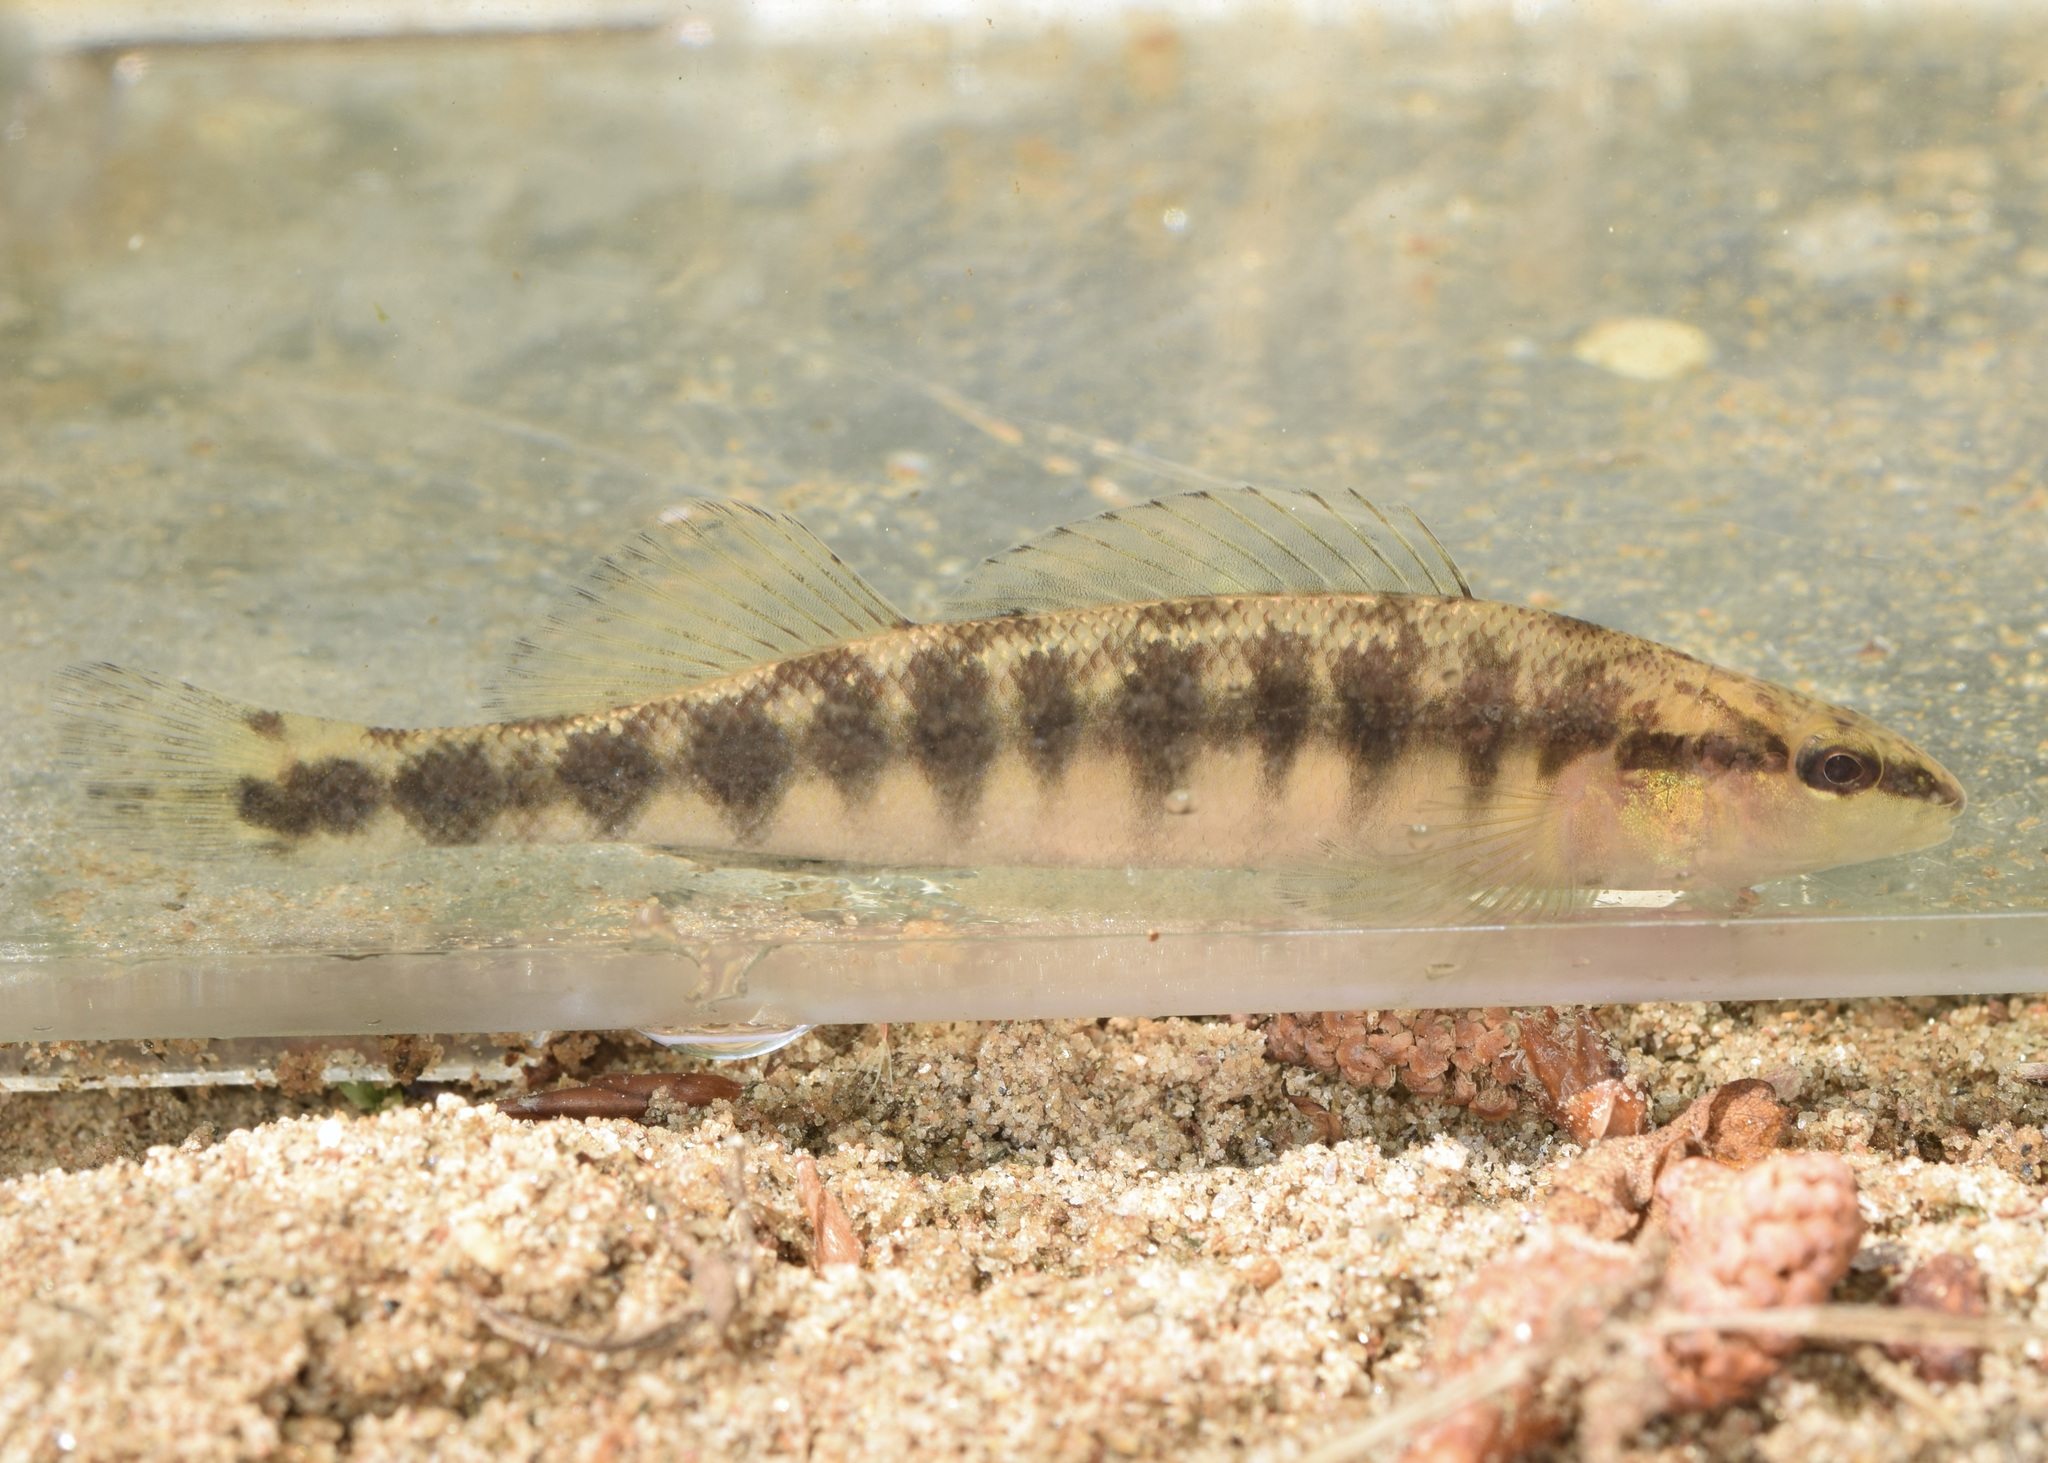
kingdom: Animalia
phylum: Chordata
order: Perciformes
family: Percidae
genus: Percina
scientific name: Percina nigrofasciata
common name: Blackbanded darter
